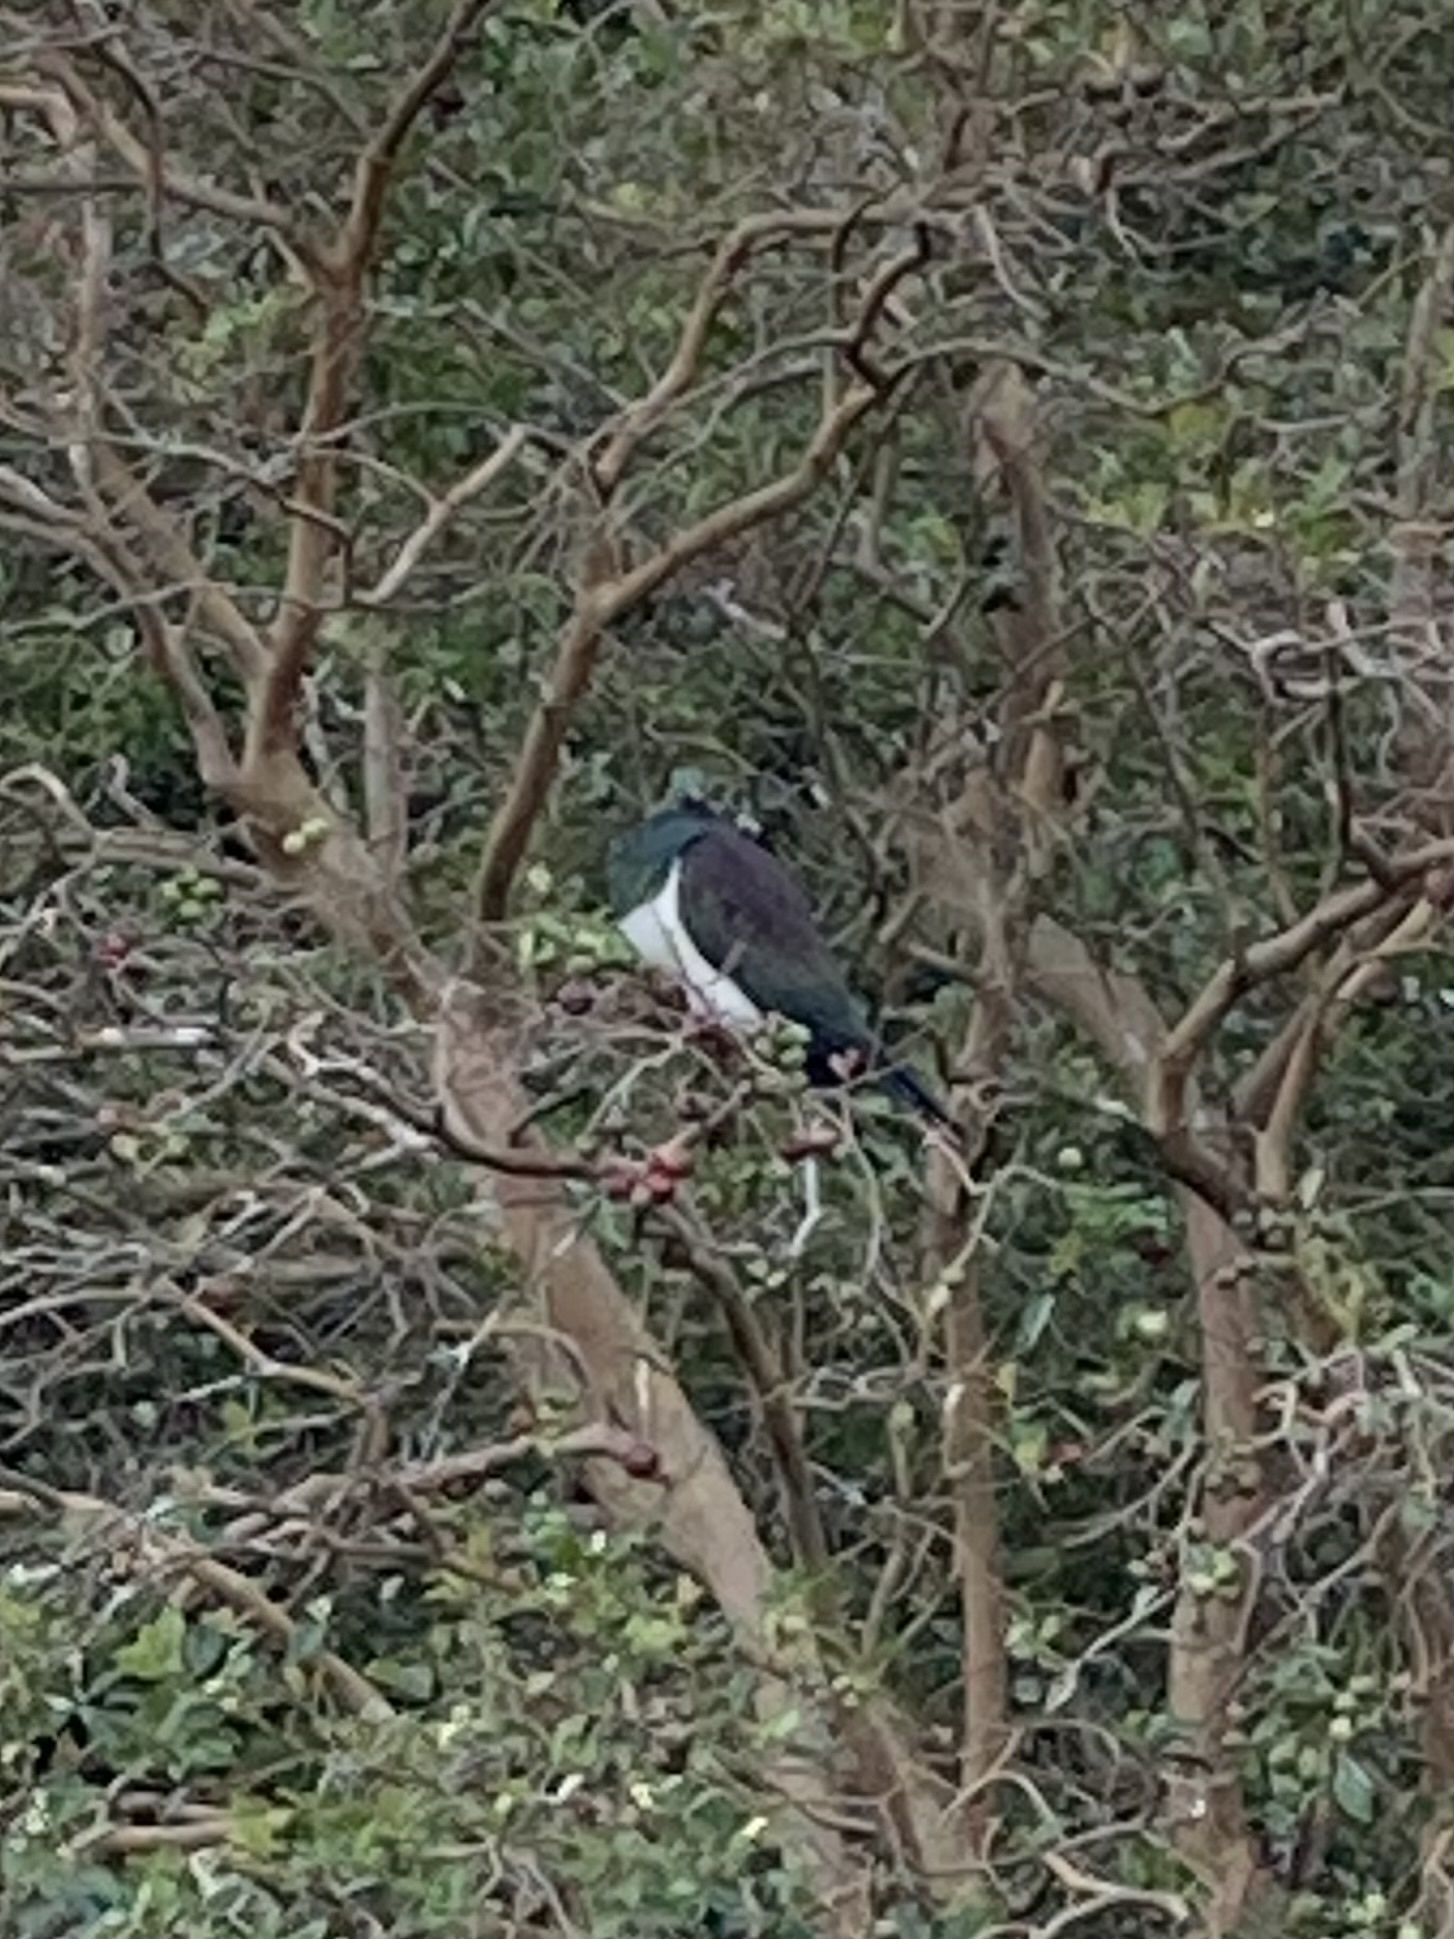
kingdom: Animalia
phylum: Chordata
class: Aves
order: Columbiformes
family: Columbidae
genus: Hemiphaga
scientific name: Hemiphaga novaeseelandiae
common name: New zealand pigeon
